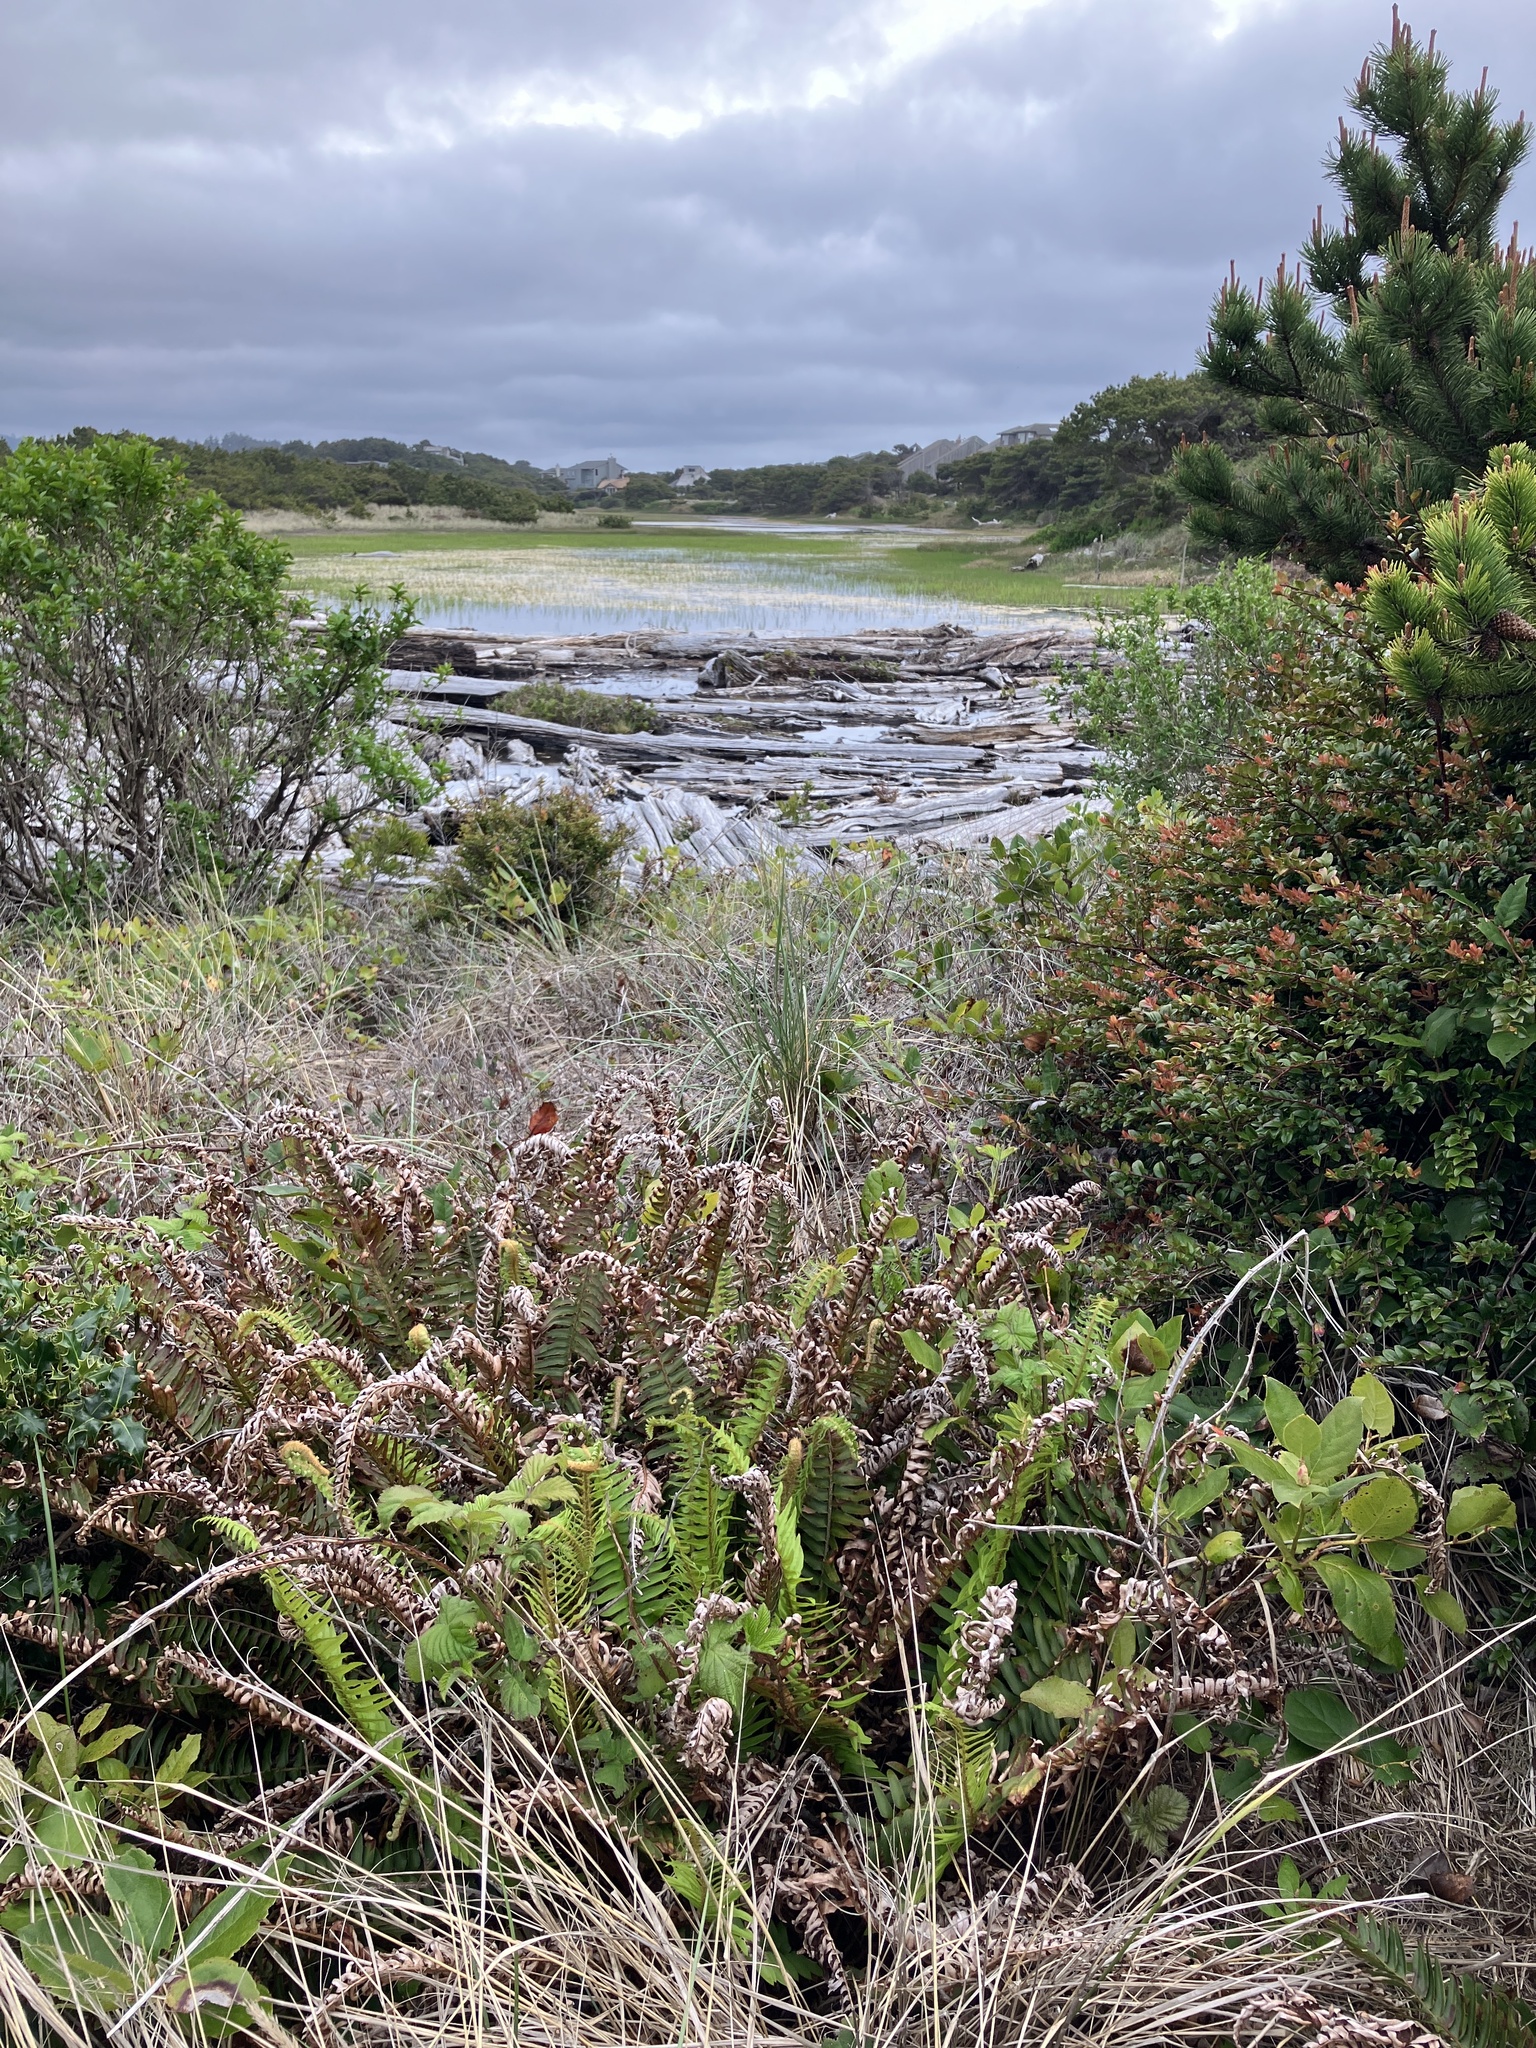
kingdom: Plantae
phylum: Tracheophyta
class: Polypodiopsida
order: Polypodiales
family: Dryopteridaceae
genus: Polystichum
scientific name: Polystichum munitum
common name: Western sword-fern
